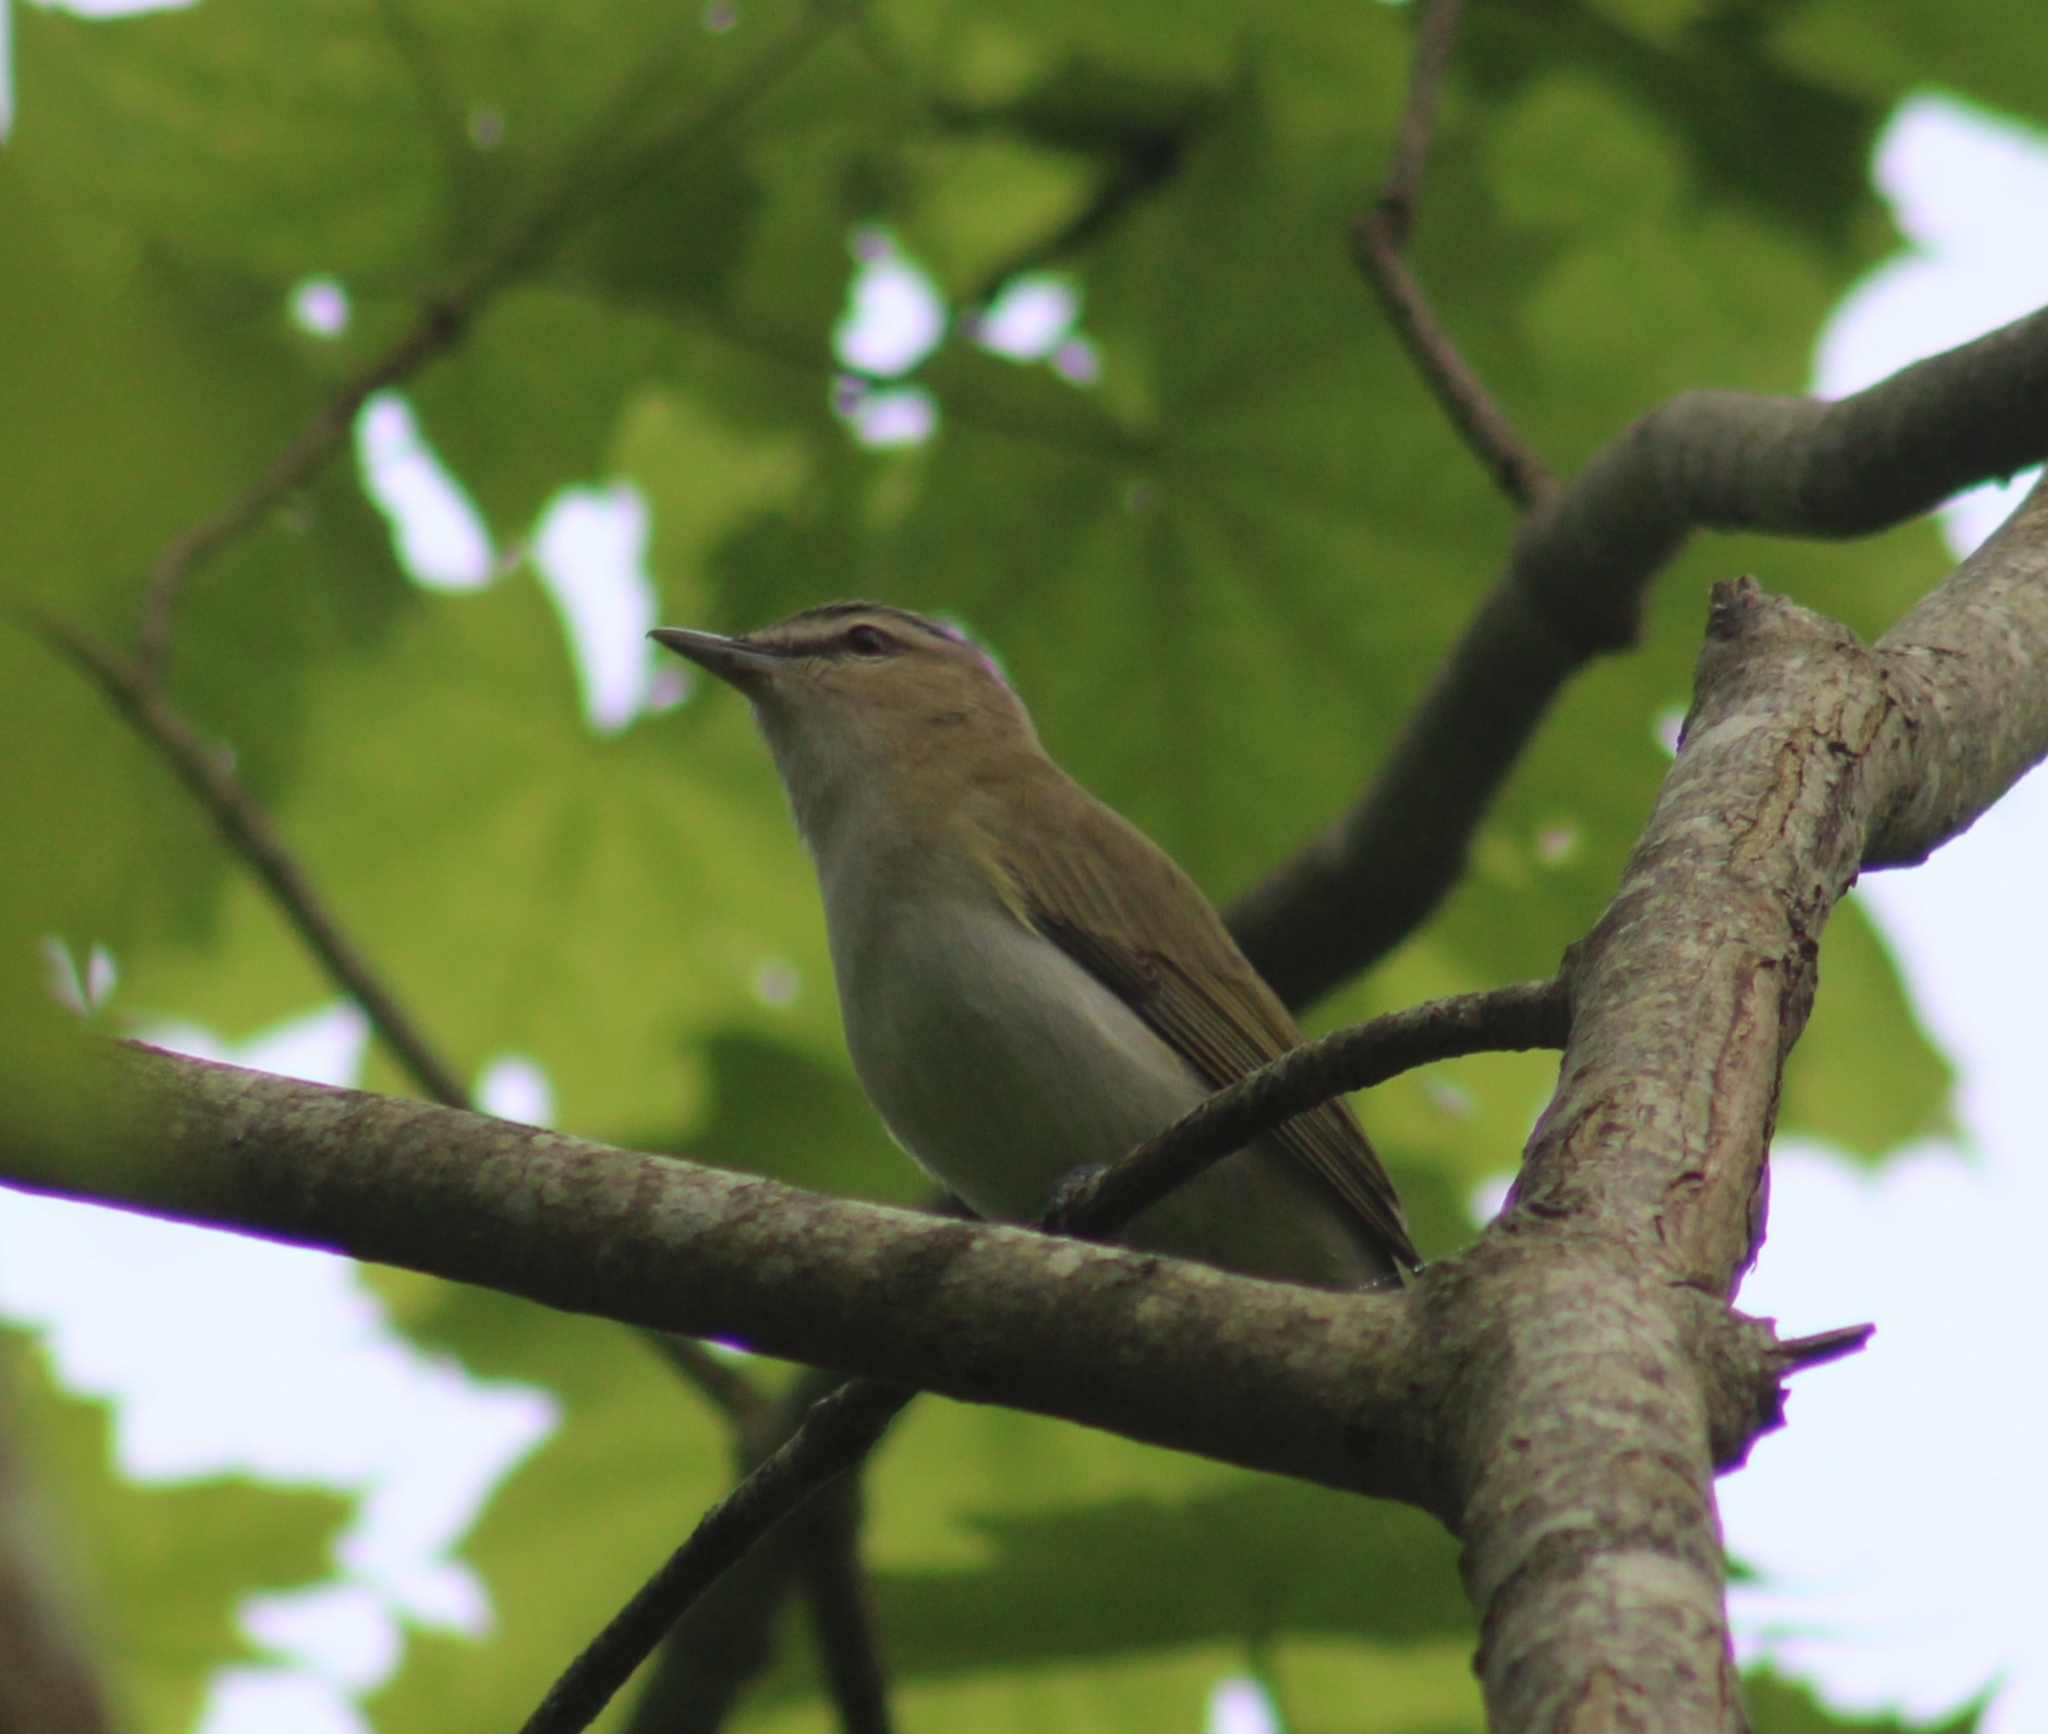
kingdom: Animalia
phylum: Chordata
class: Aves
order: Passeriformes
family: Vireonidae
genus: Vireo
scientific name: Vireo olivaceus
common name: Red-eyed vireo
